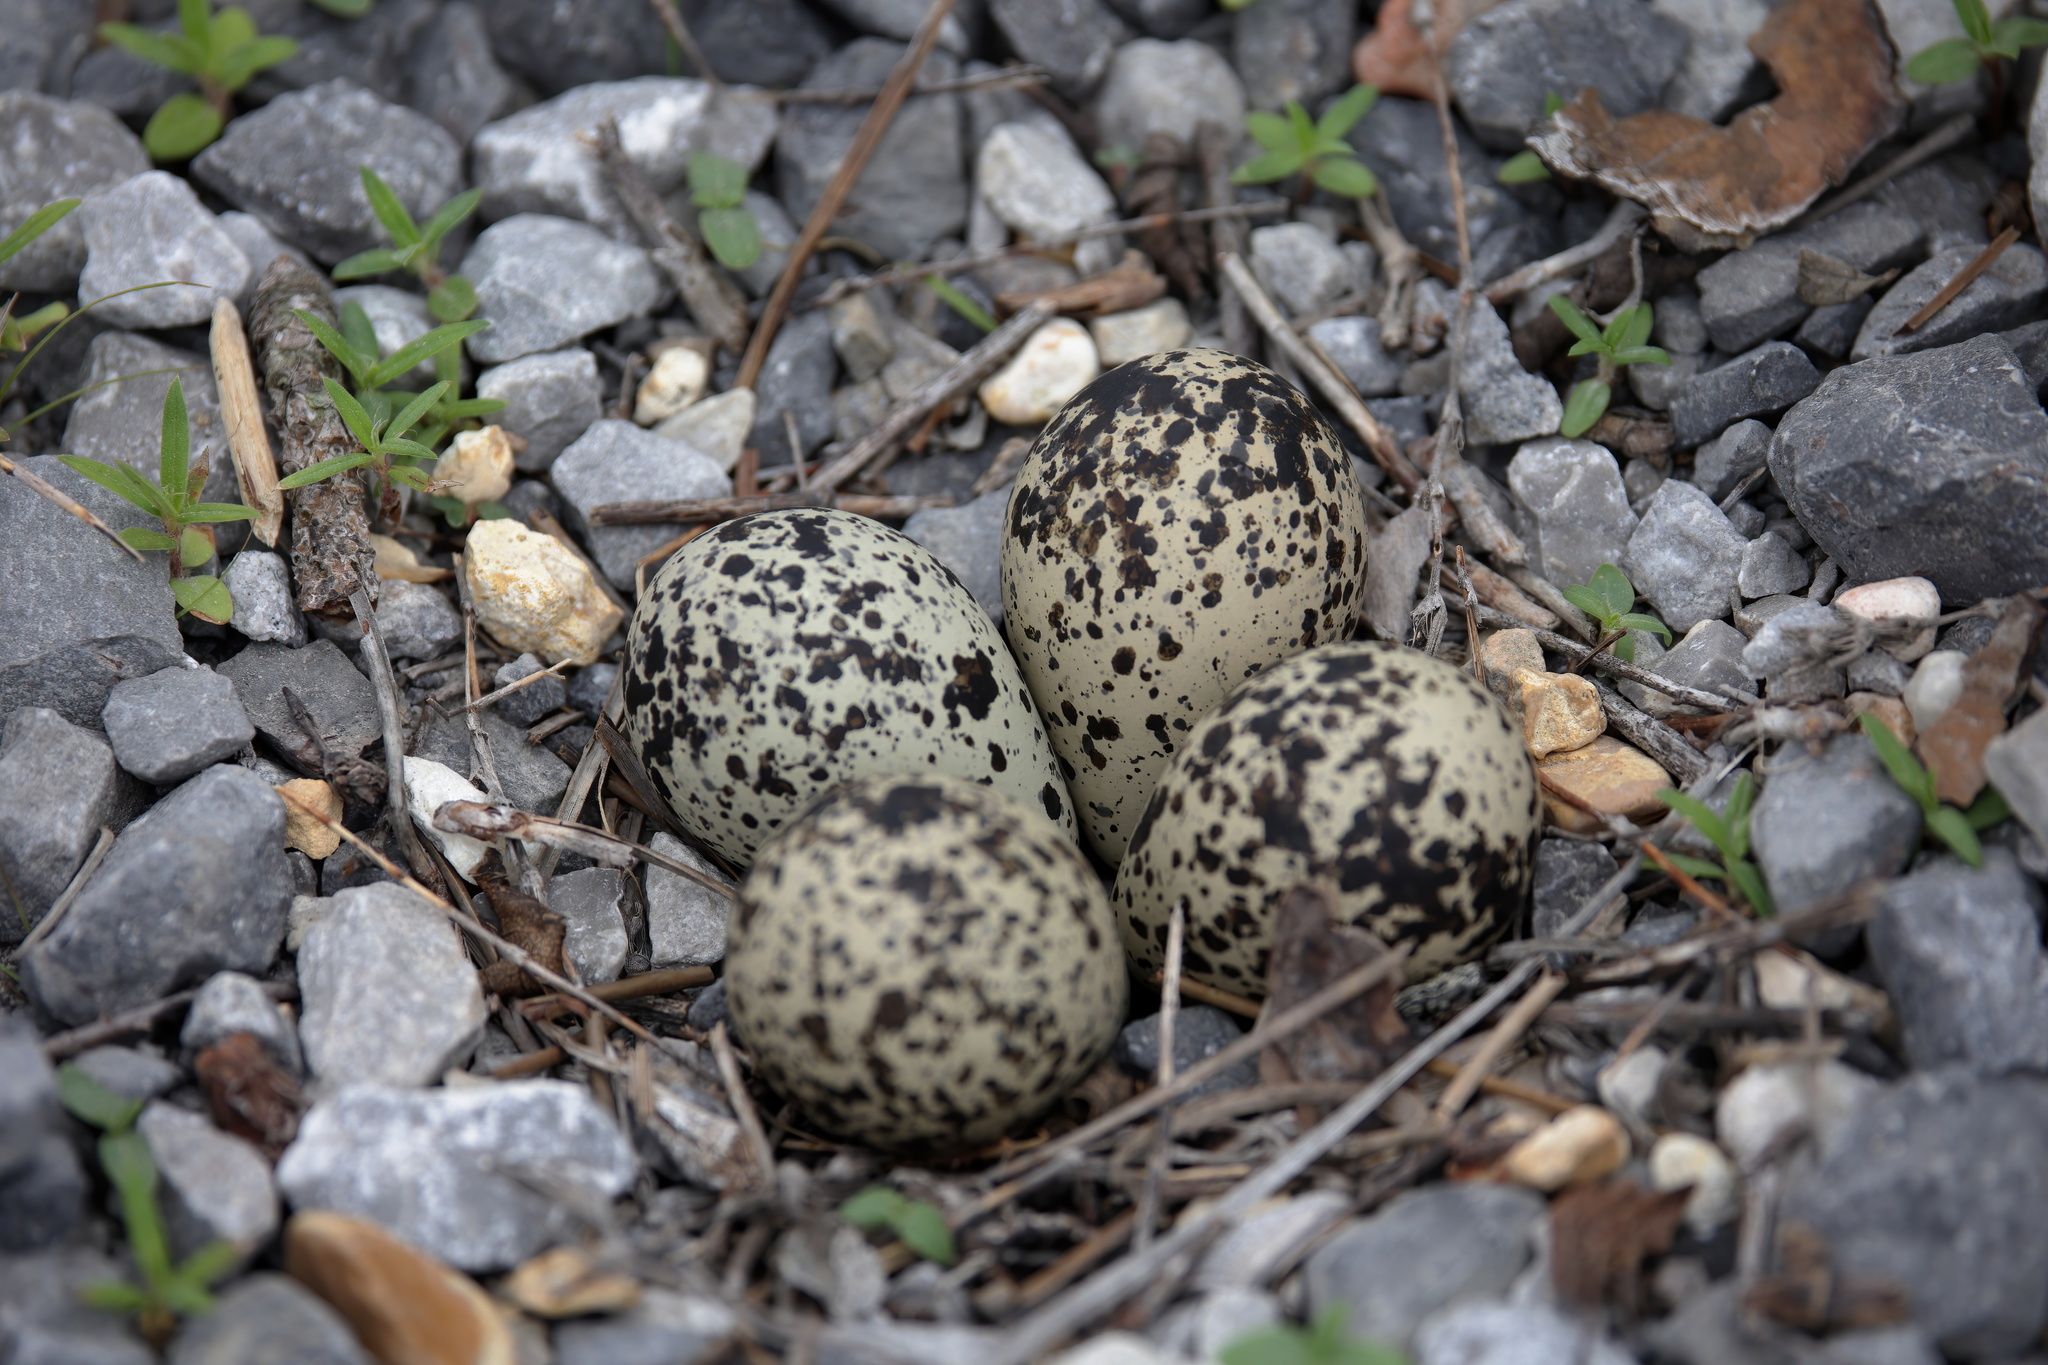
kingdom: Animalia
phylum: Chordata
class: Aves
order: Charadriiformes
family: Charadriidae
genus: Charadrius
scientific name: Charadrius vociferus
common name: Killdeer
